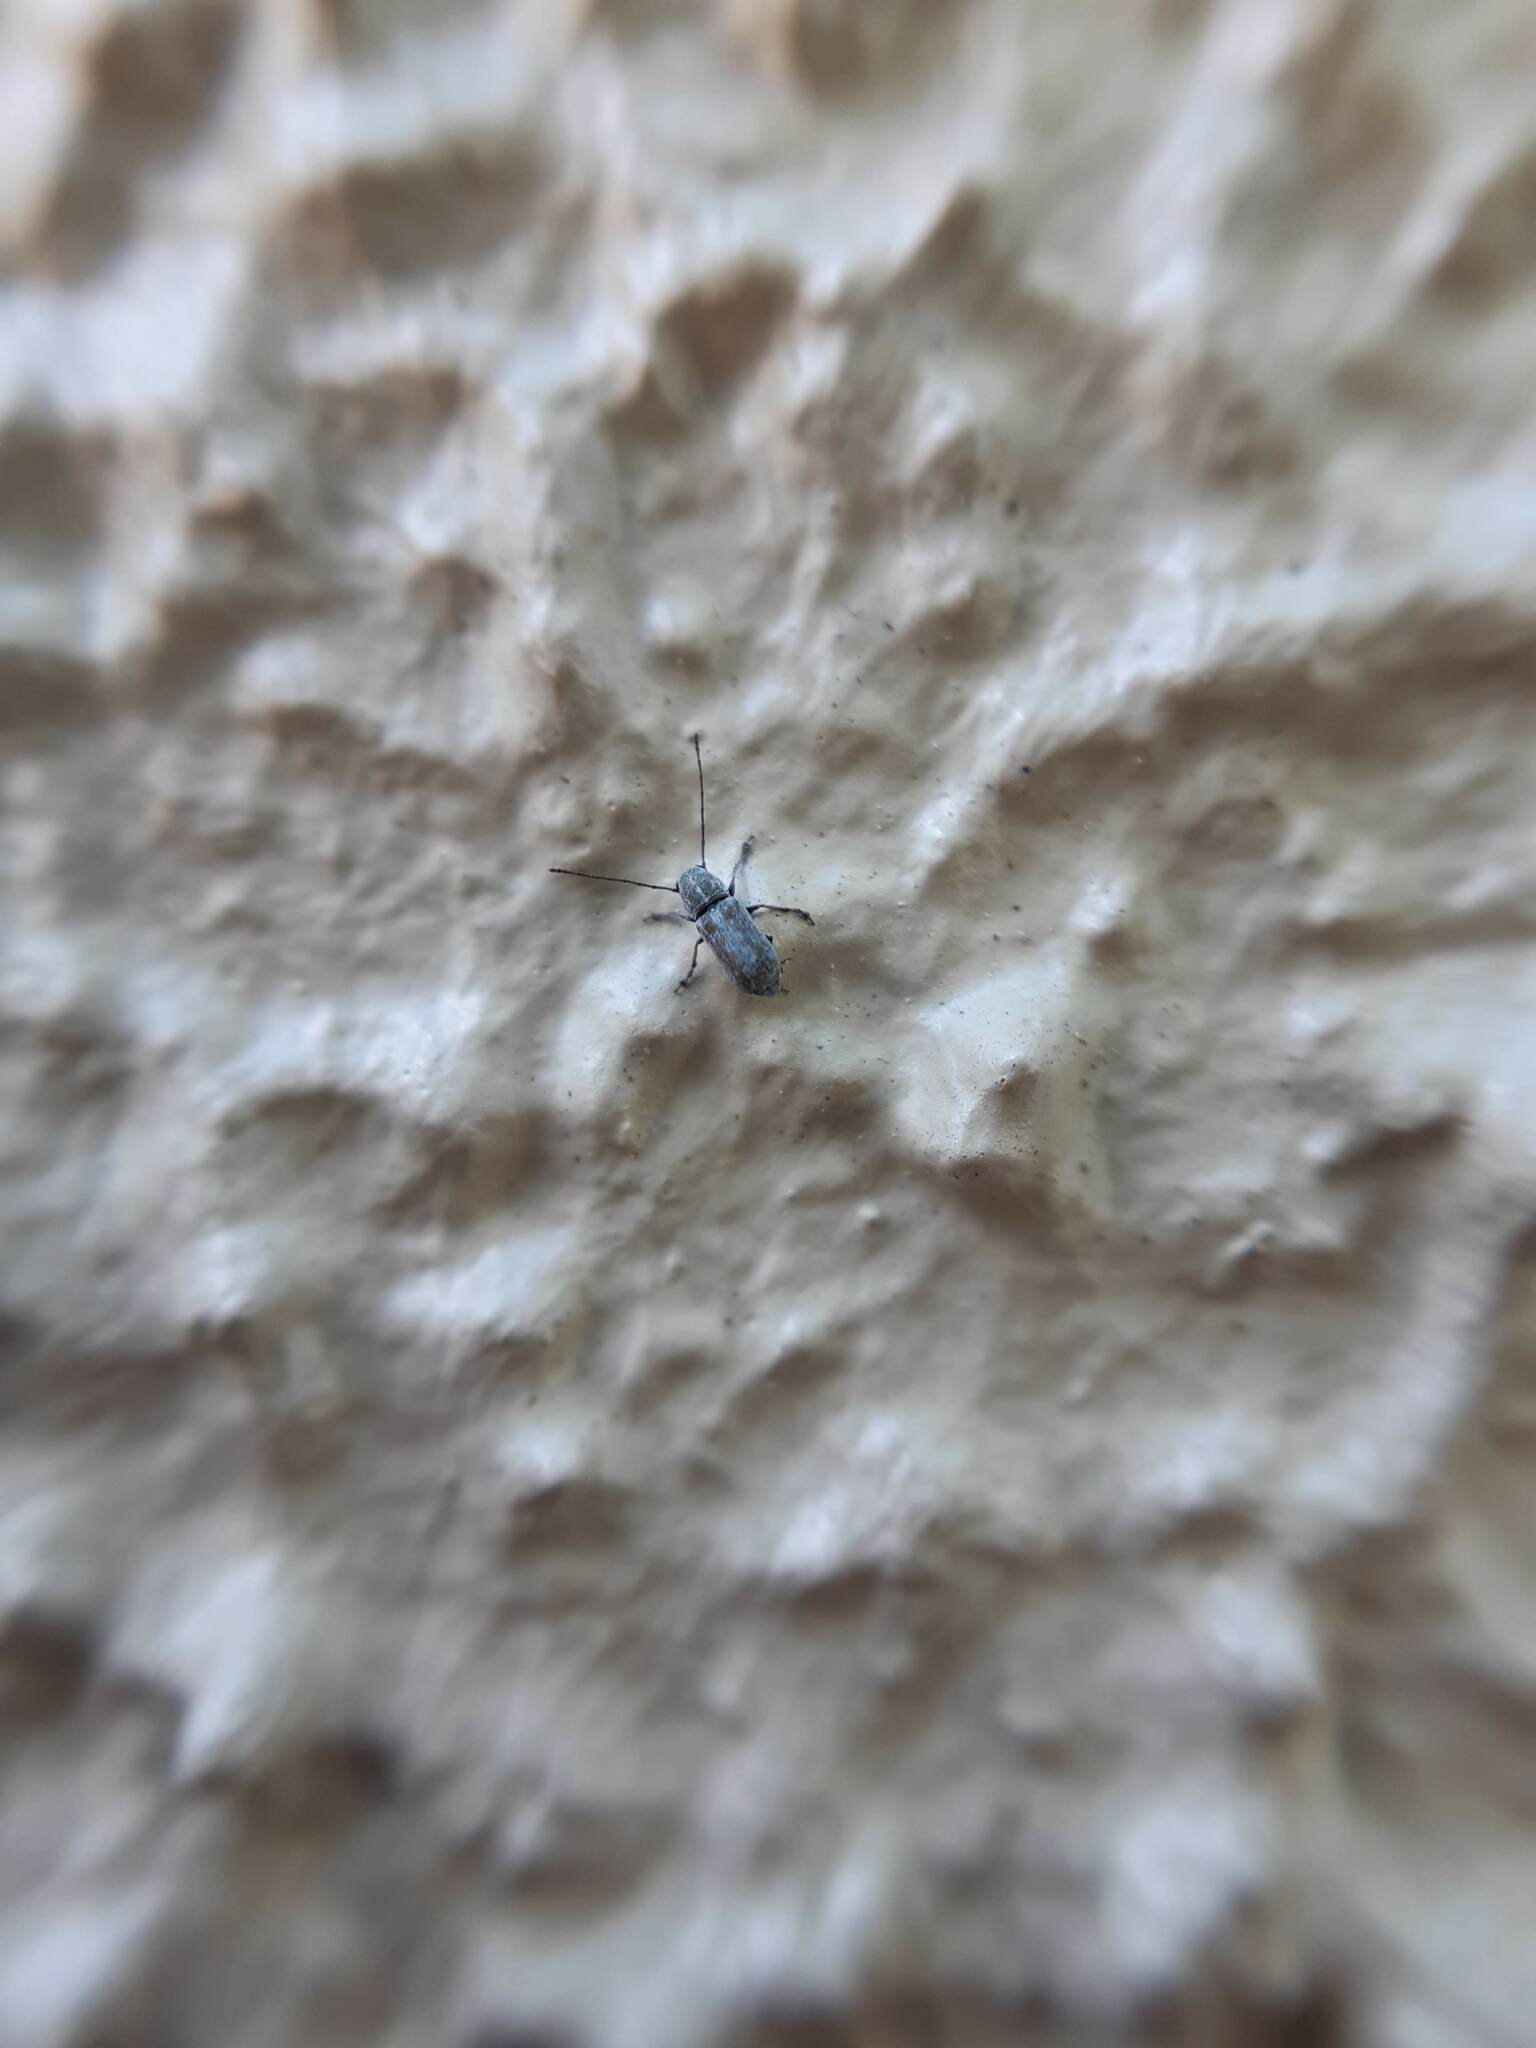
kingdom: Animalia
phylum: Arthropoda
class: Insecta
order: Coleoptera
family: Anthribidae
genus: Euciodes
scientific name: Euciodes suturalis
